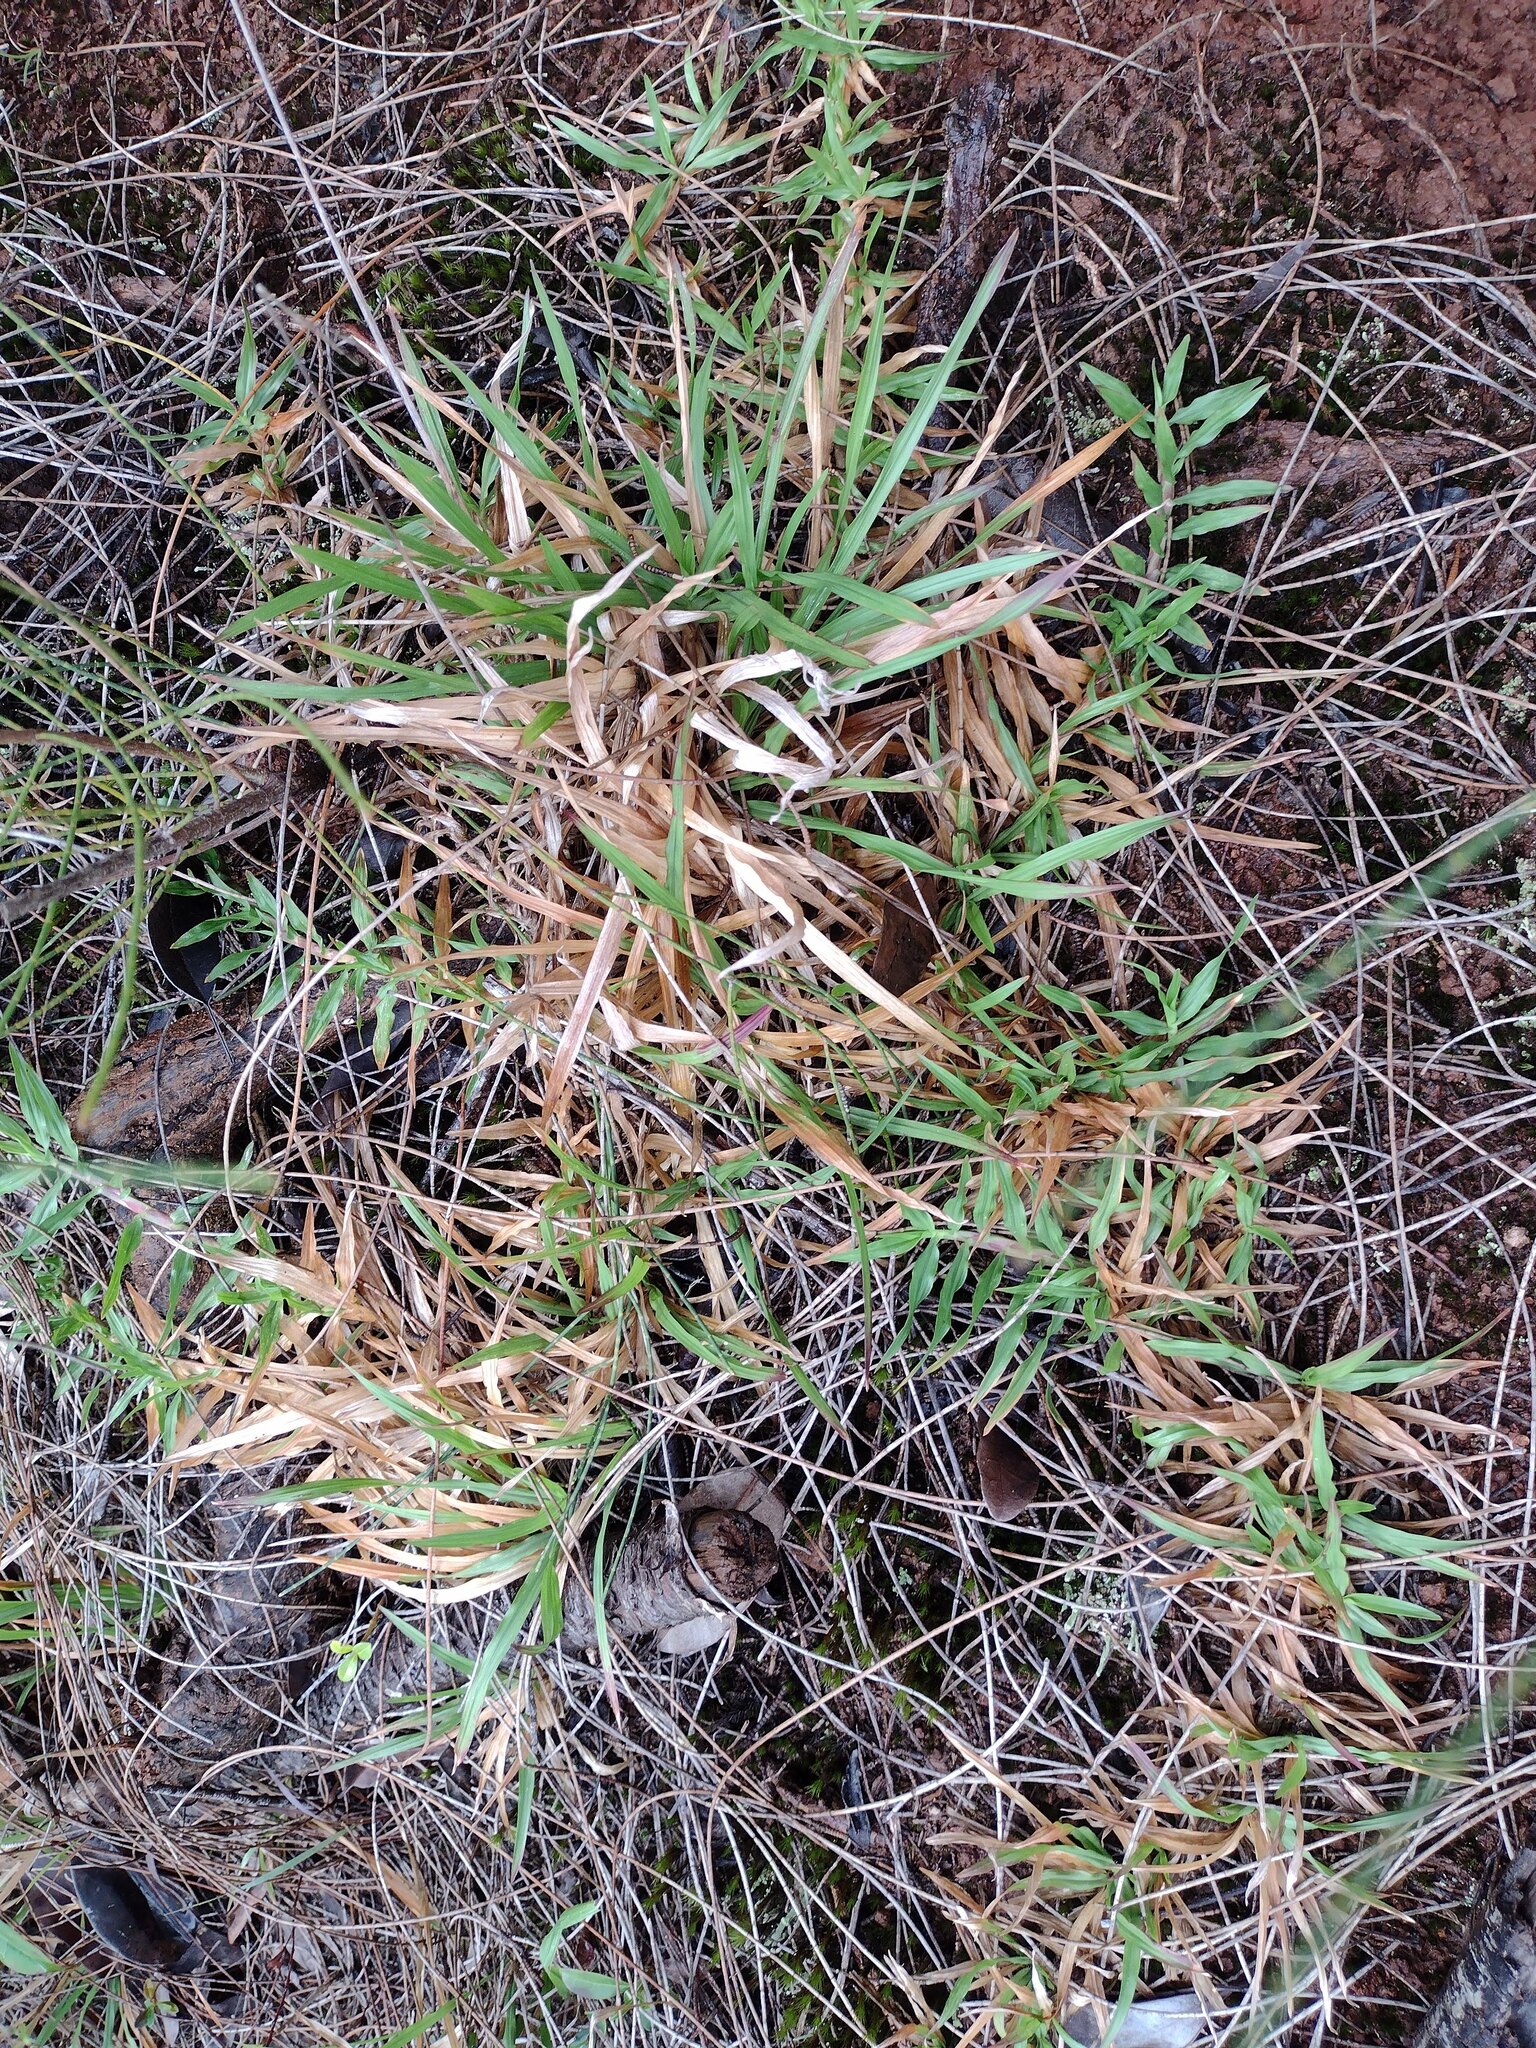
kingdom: Plantae
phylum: Tracheophyta
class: Liliopsida
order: Poales
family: Poaceae
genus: Chrysopogon
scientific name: Chrysopogon aciculatus
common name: Pilipiliula
